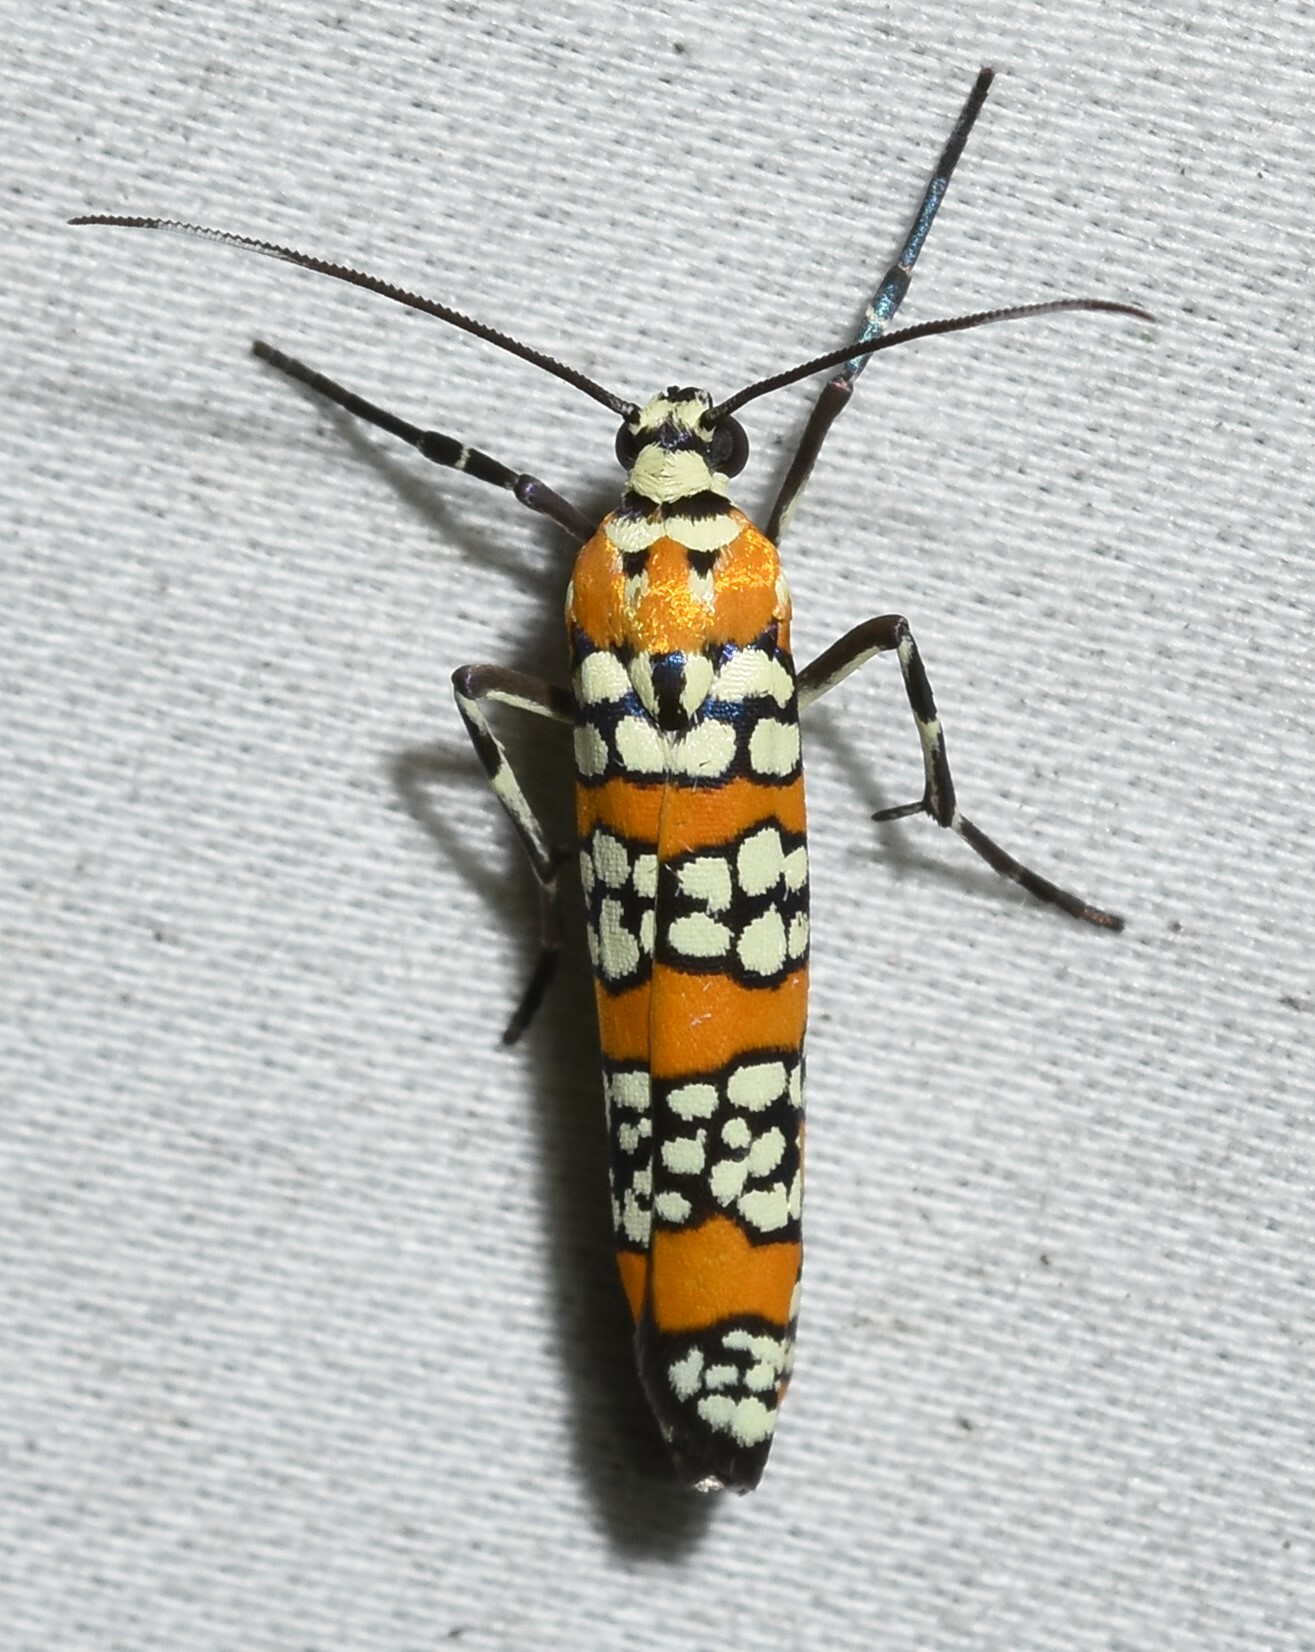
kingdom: Animalia
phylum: Arthropoda
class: Insecta
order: Lepidoptera
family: Attevidae
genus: Atteva
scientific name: Atteva punctella
